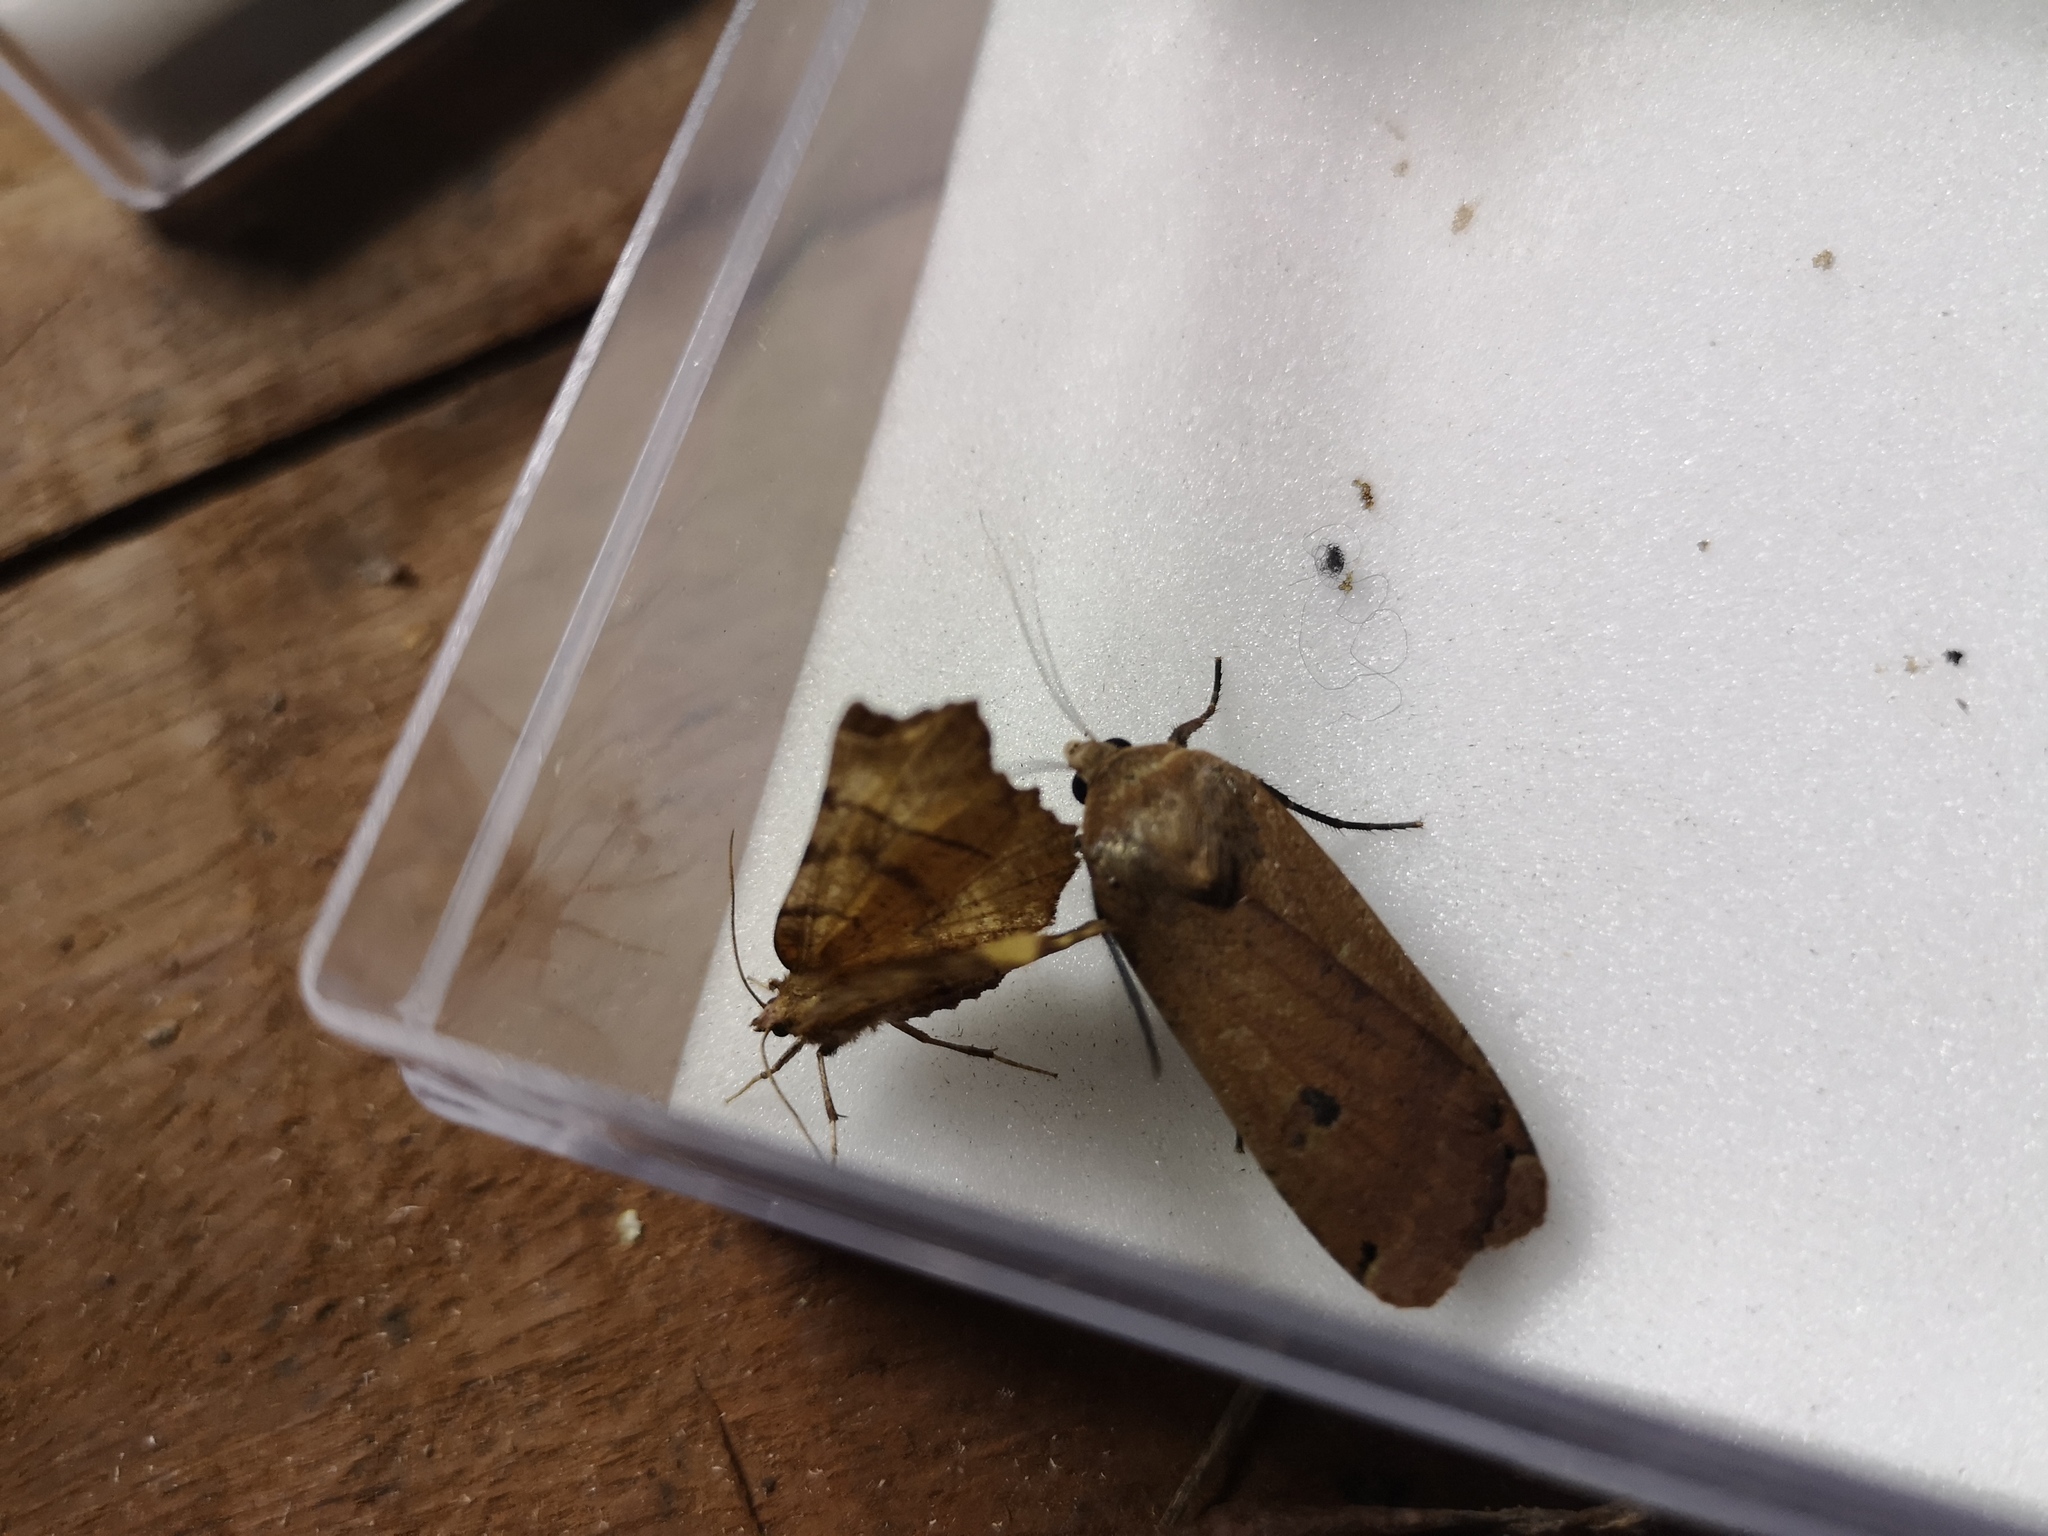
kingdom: Animalia
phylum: Arthropoda
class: Insecta
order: Lepidoptera
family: Noctuidae
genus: Noctua
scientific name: Noctua pronuba
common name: Large yellow underwing
